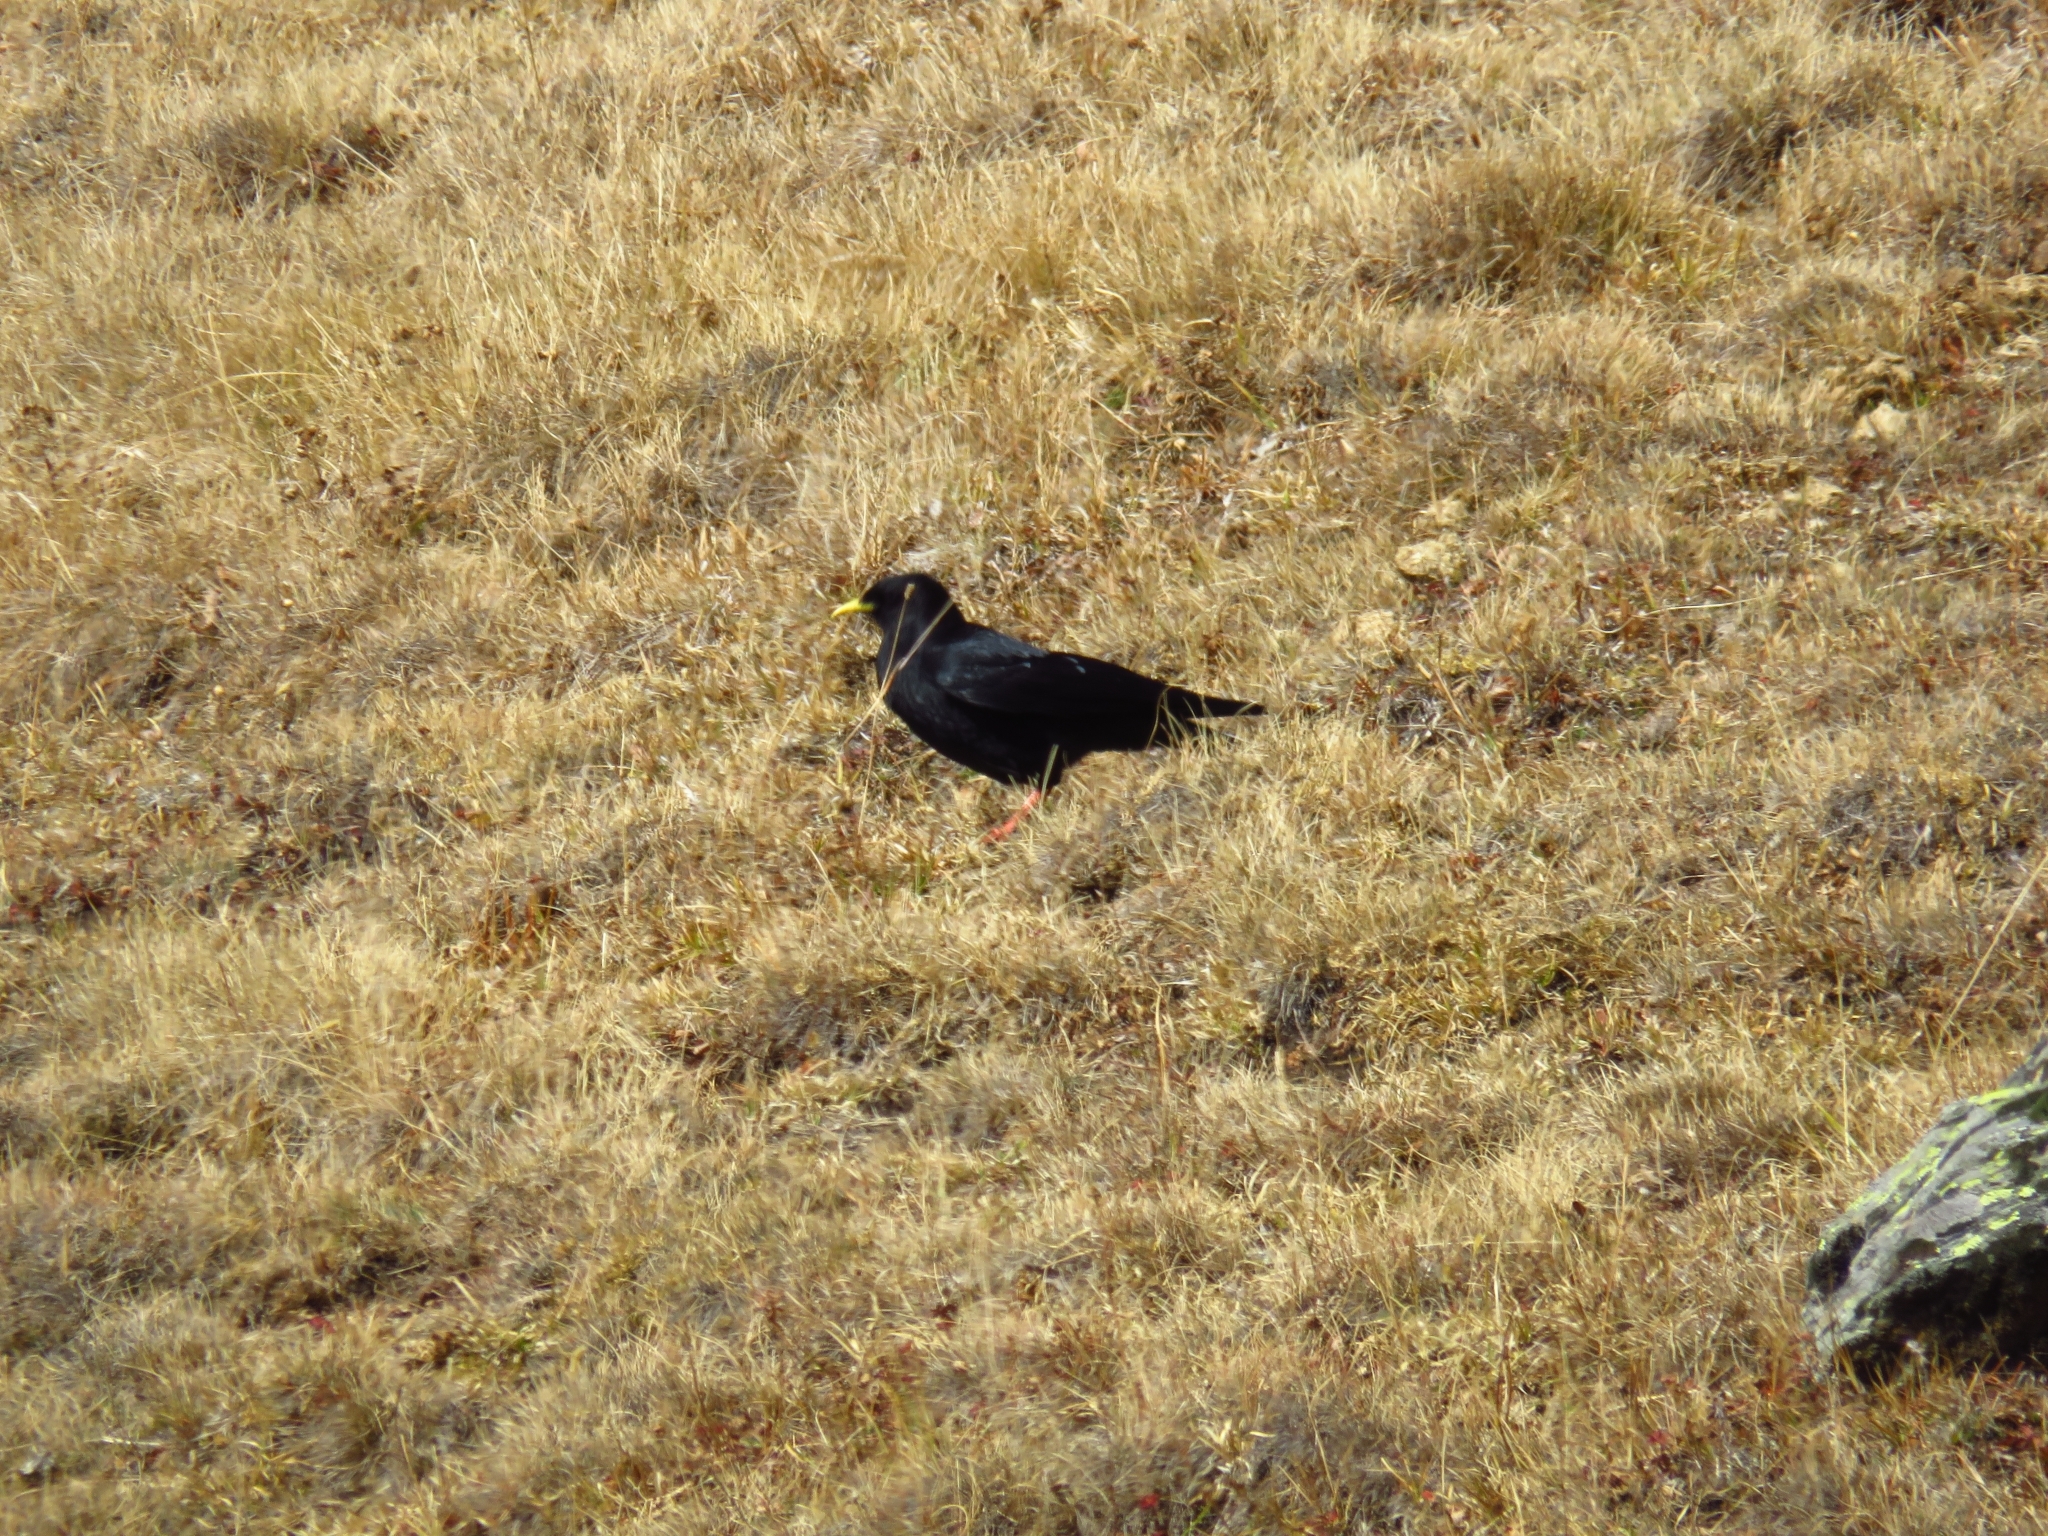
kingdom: Animalia
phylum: Chordata
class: Aves
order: Passeriformes
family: Corvidae
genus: Pyrrhocorax
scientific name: Pyrrhocorax graculus
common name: Alpine chough
